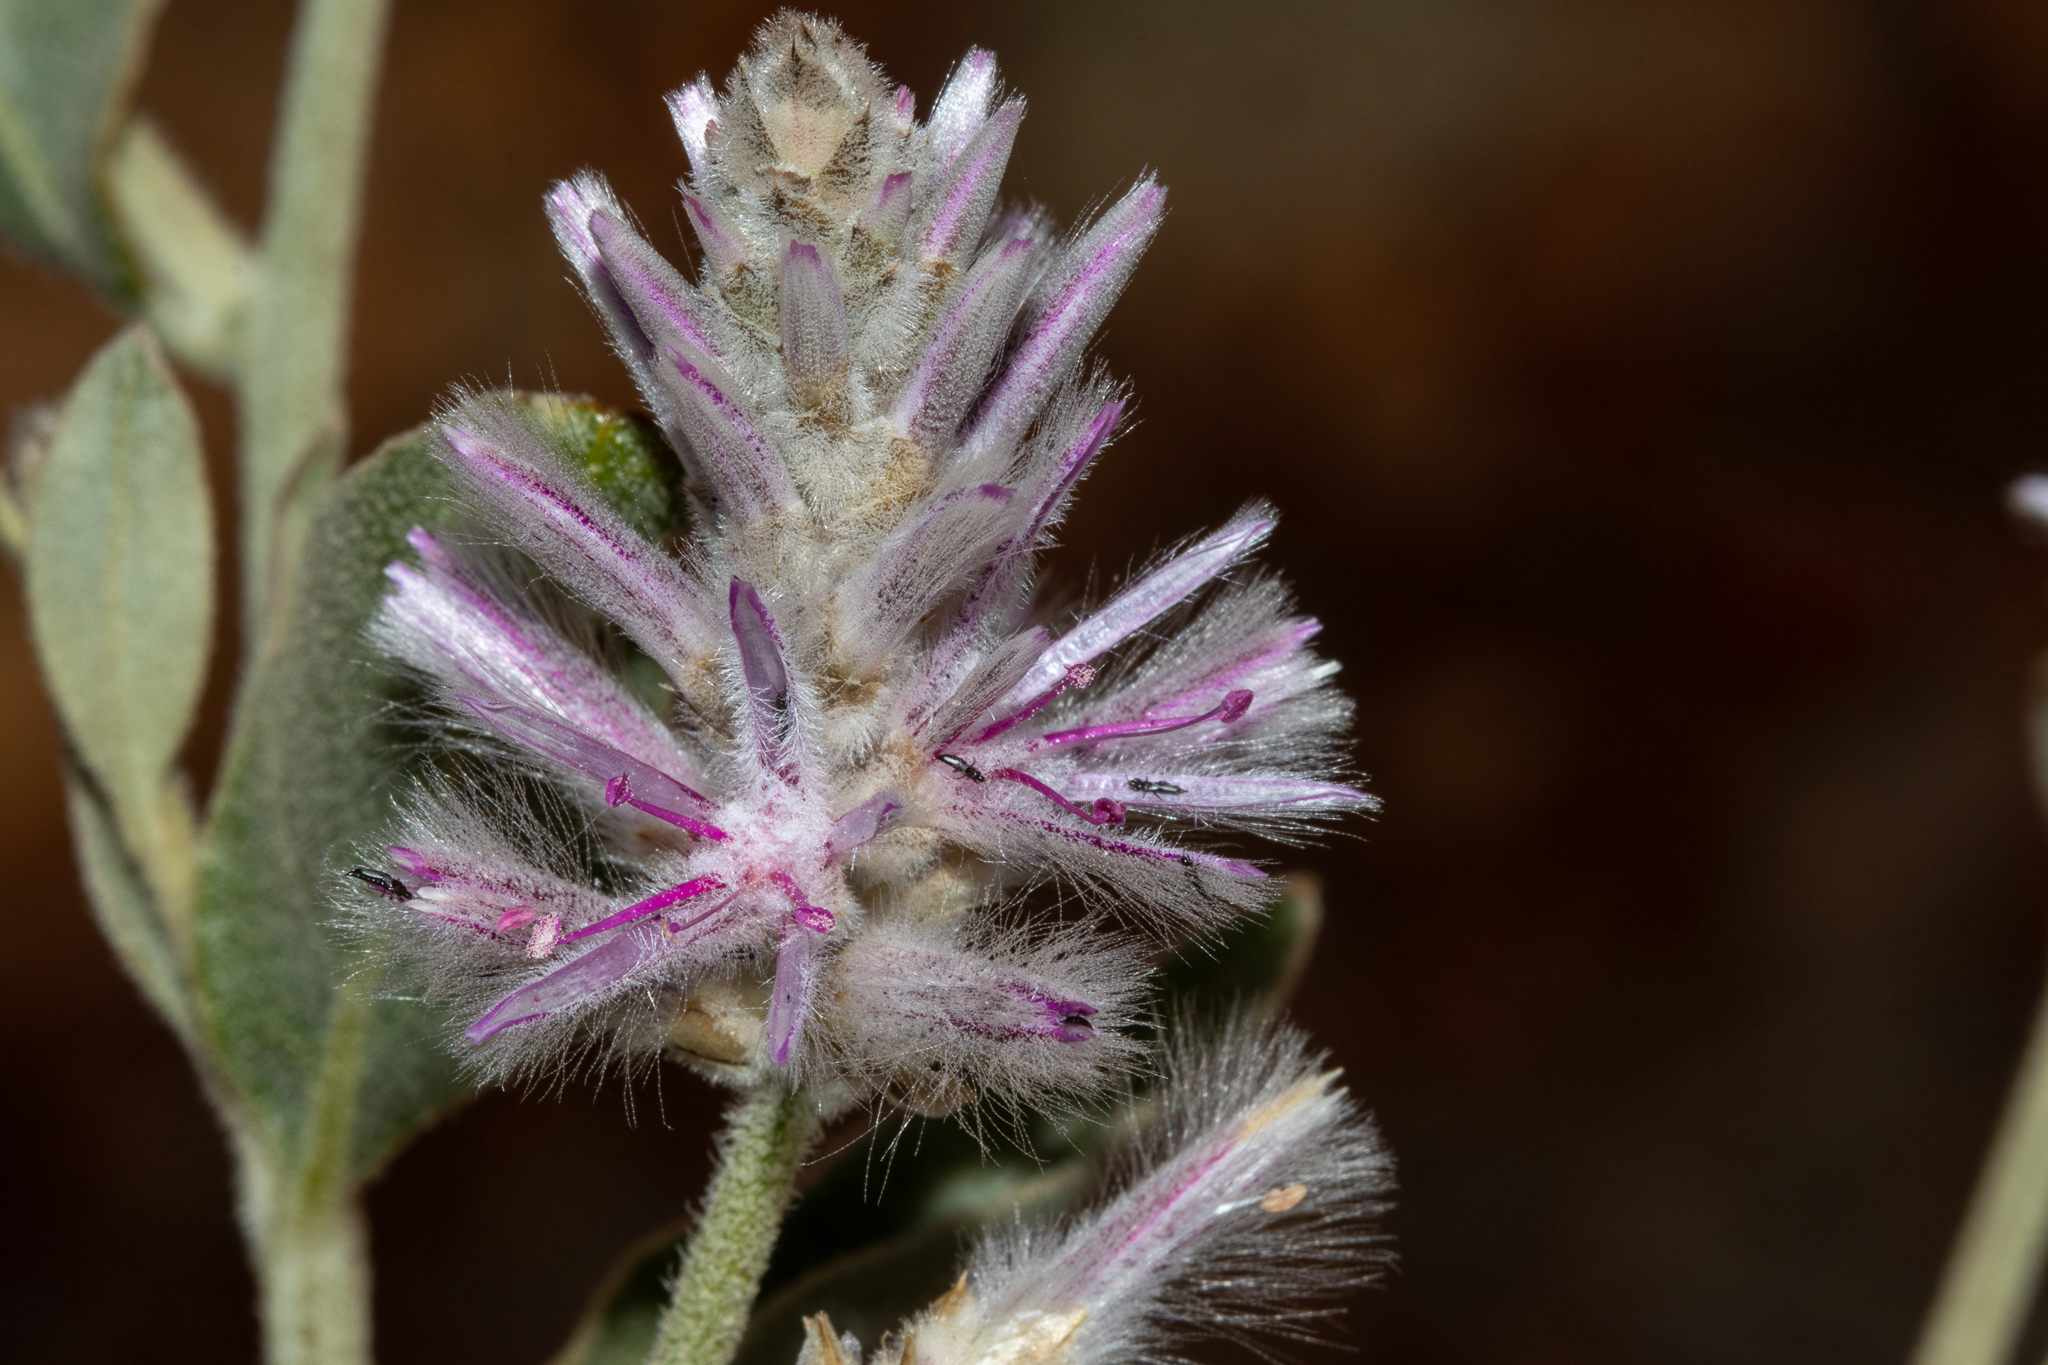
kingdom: Plantae
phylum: Tracheophyta
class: Magnoliopsida
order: Caryophyllales
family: Amaranthaceae
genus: Ptilotus
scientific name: Ptilotus sessilifolius
